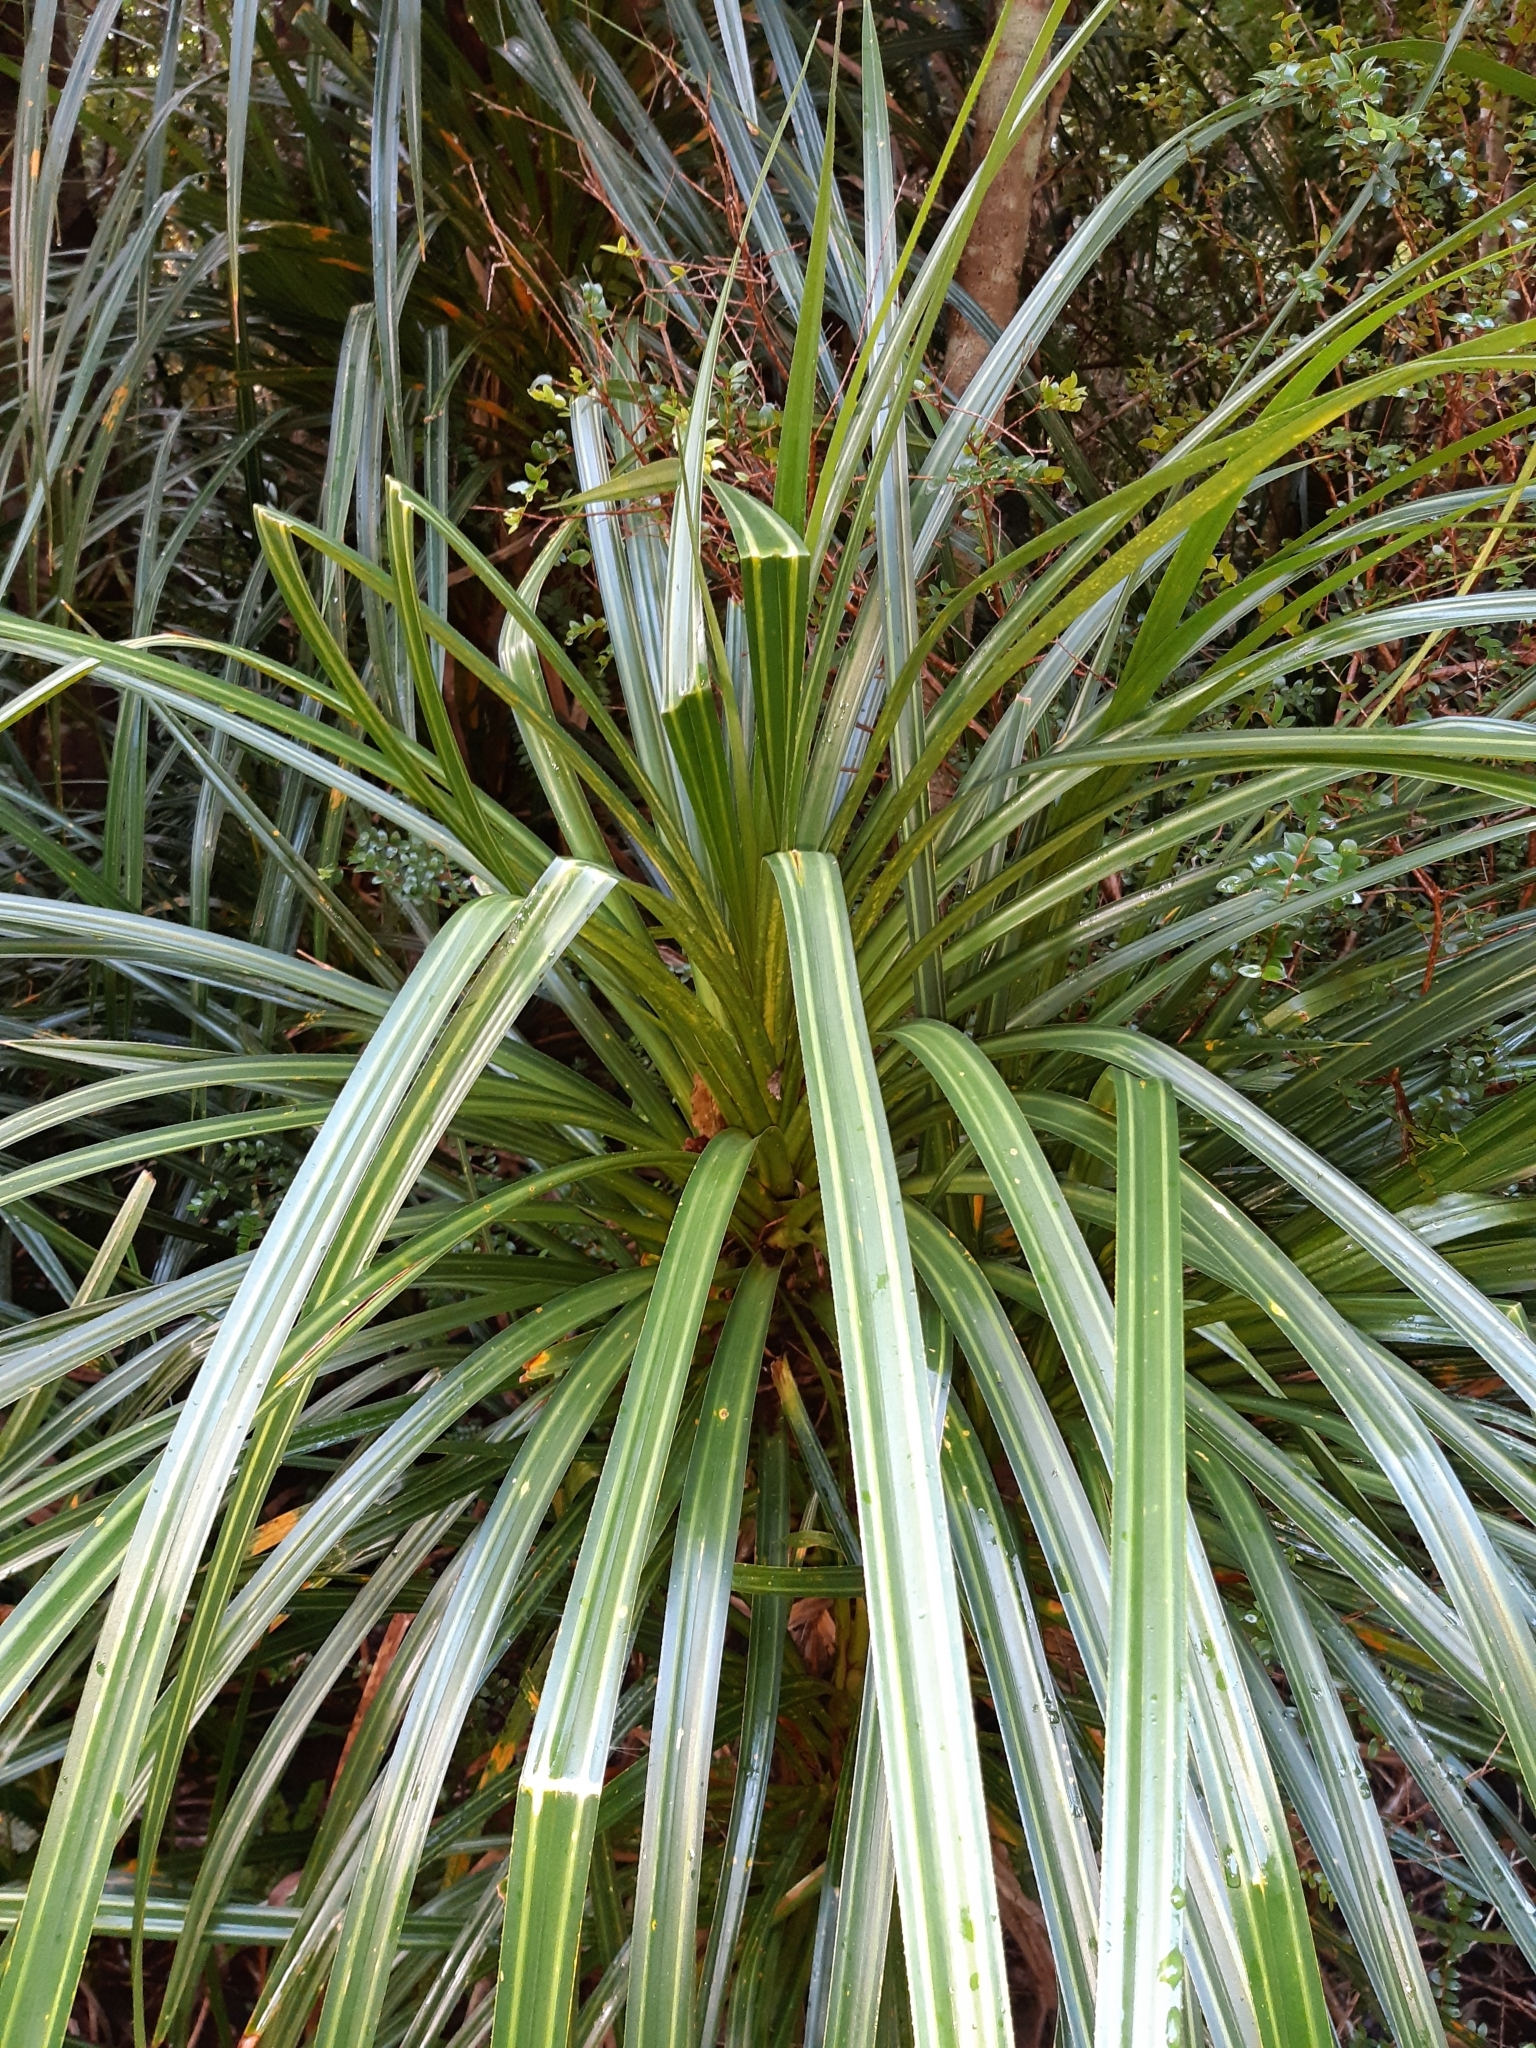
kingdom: Plantae
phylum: Tracheophyta
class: Liliopsida
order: Pandanales
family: Pandanaceae
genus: Freycinetia
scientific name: Freycinetia banksii
